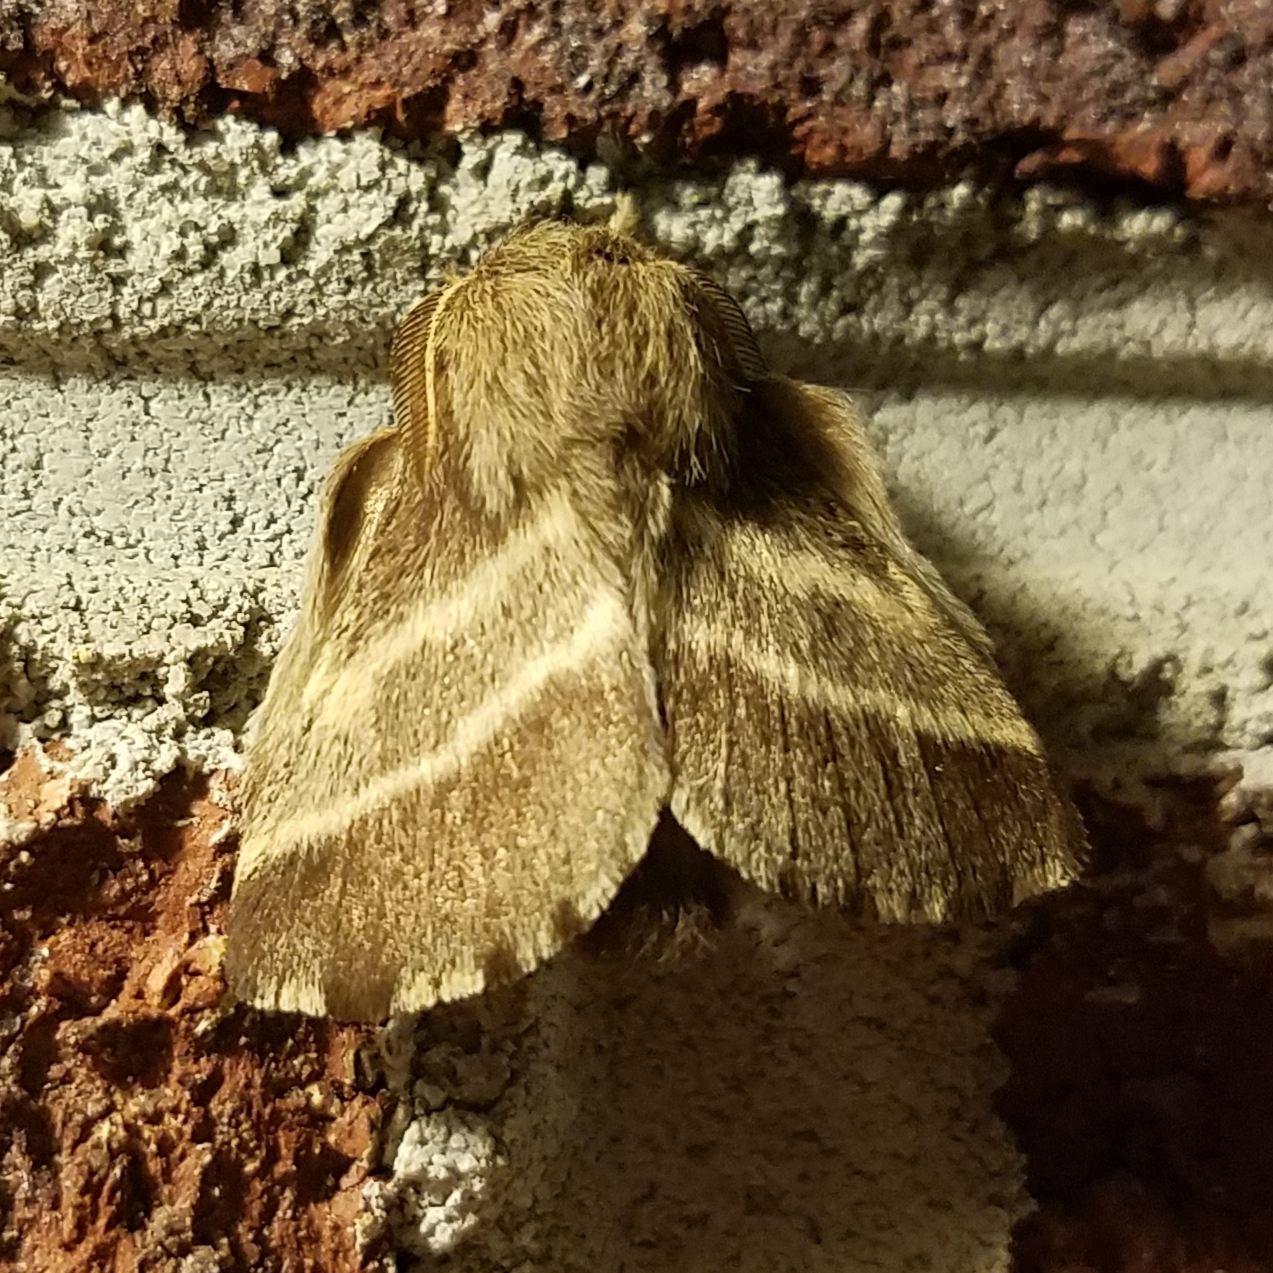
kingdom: Animalia
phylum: Arthropoda
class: Insecta
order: Lepidoptera
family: Lasiocampidae
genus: Malacosoma
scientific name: Malacosoma americana
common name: Eastern tent caterpillar moth
